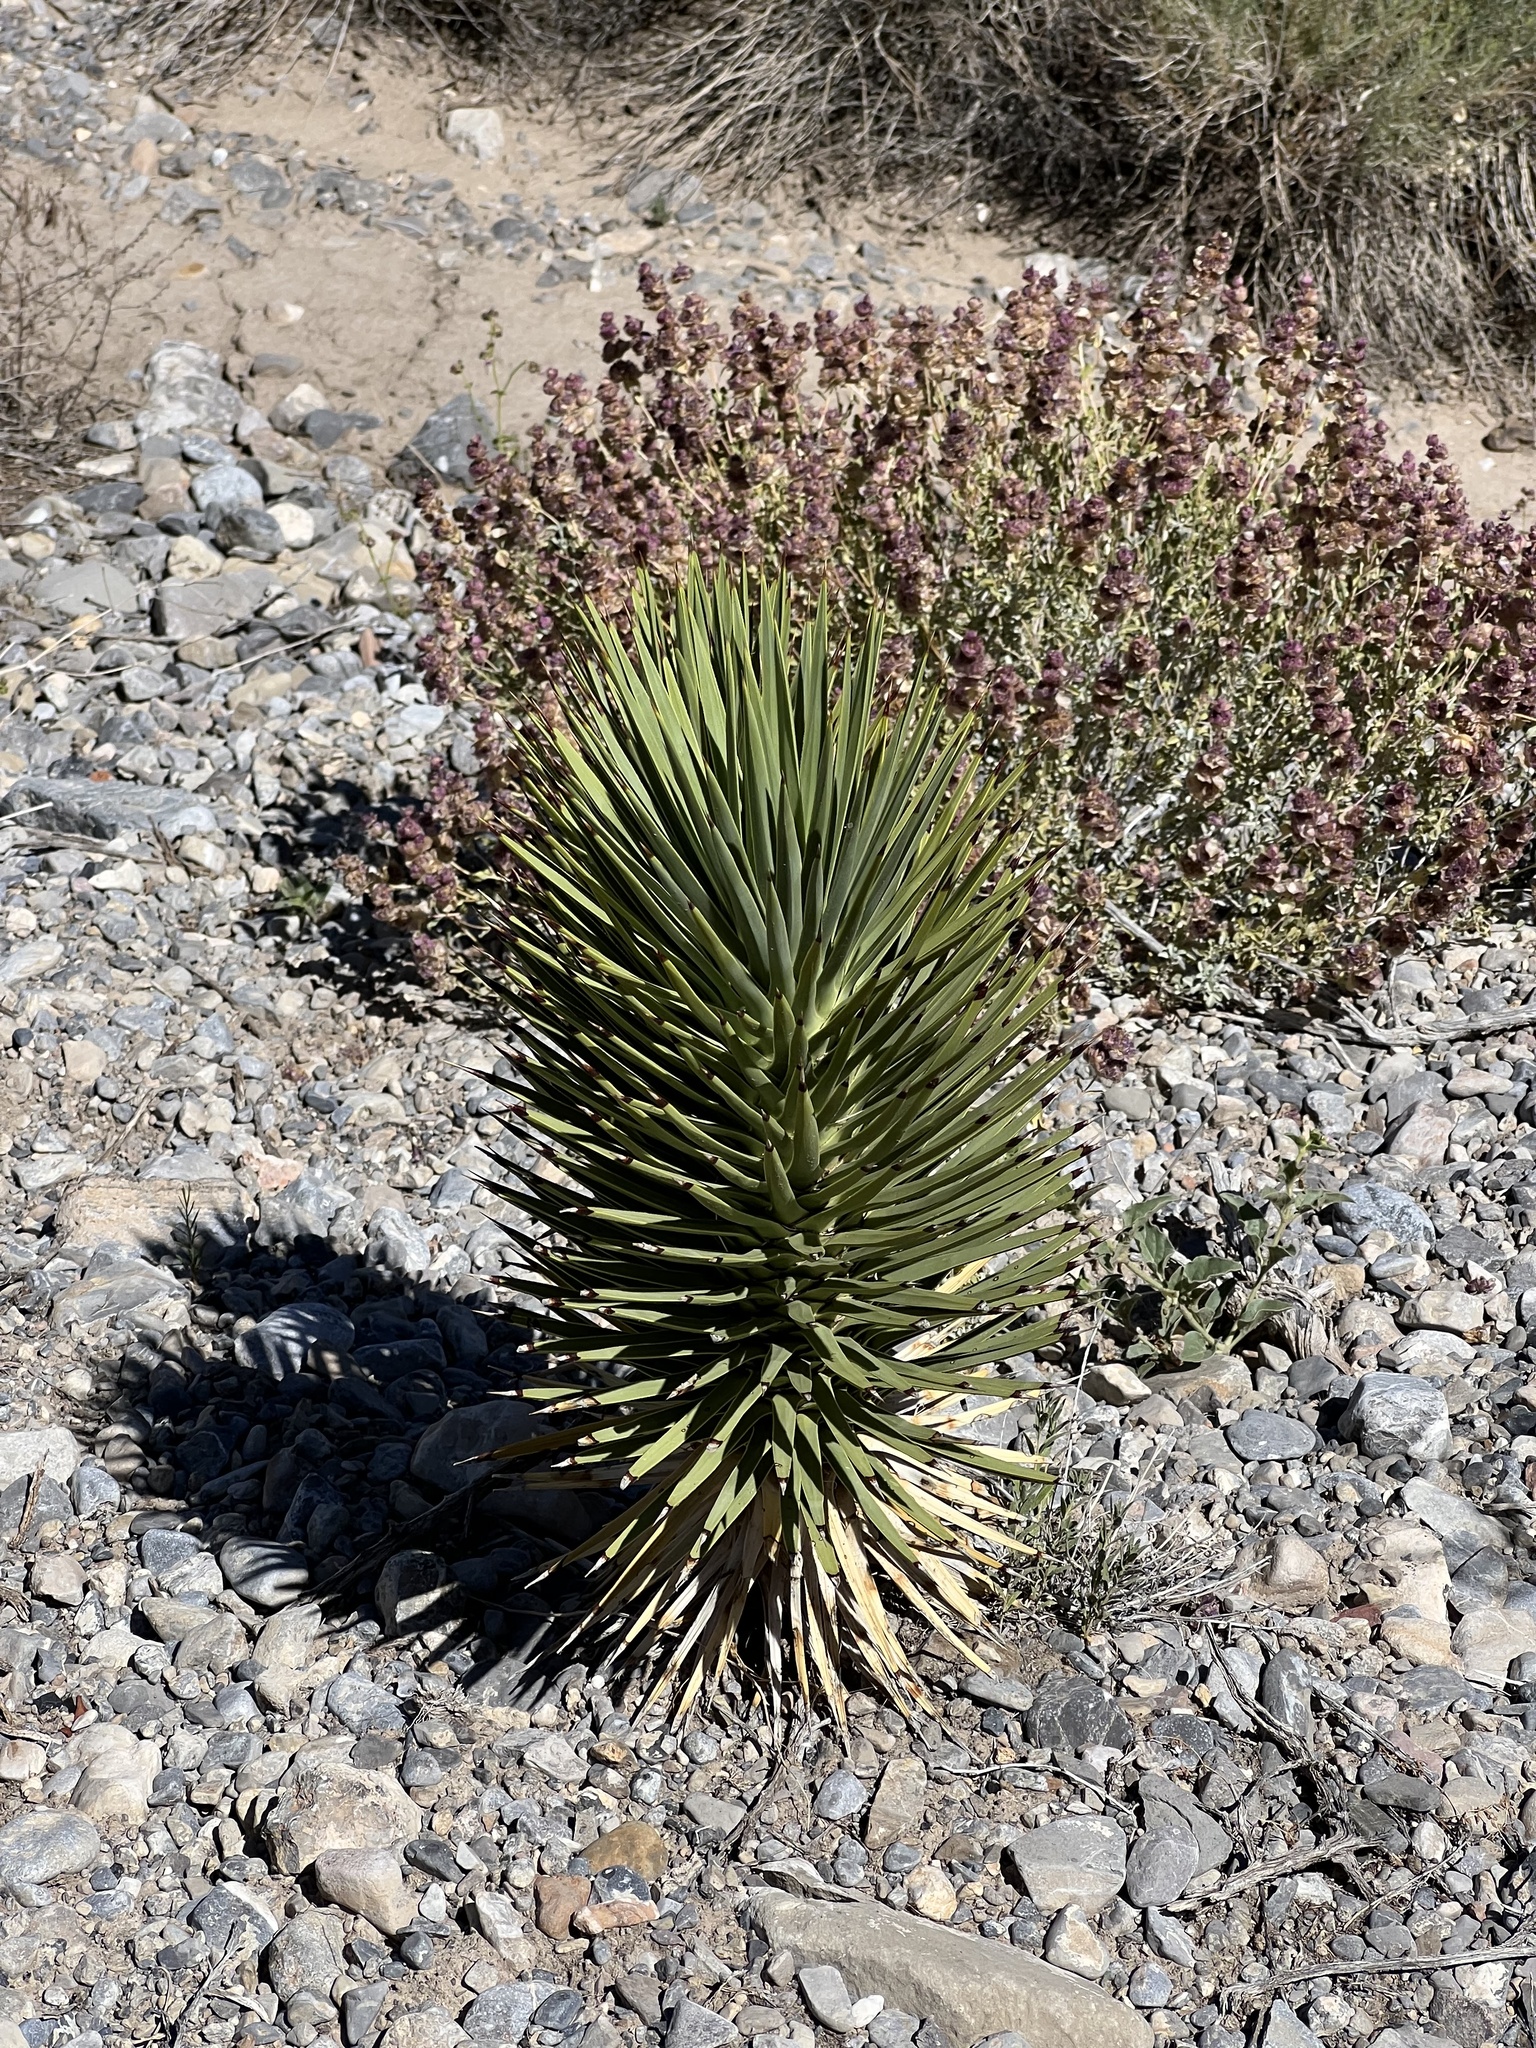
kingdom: Plantae
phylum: Tracheophyta
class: Liliopsida
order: Asparagales
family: Asparagaceae
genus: Yucca
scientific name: Yucca brevifolia
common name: Joshua tree
